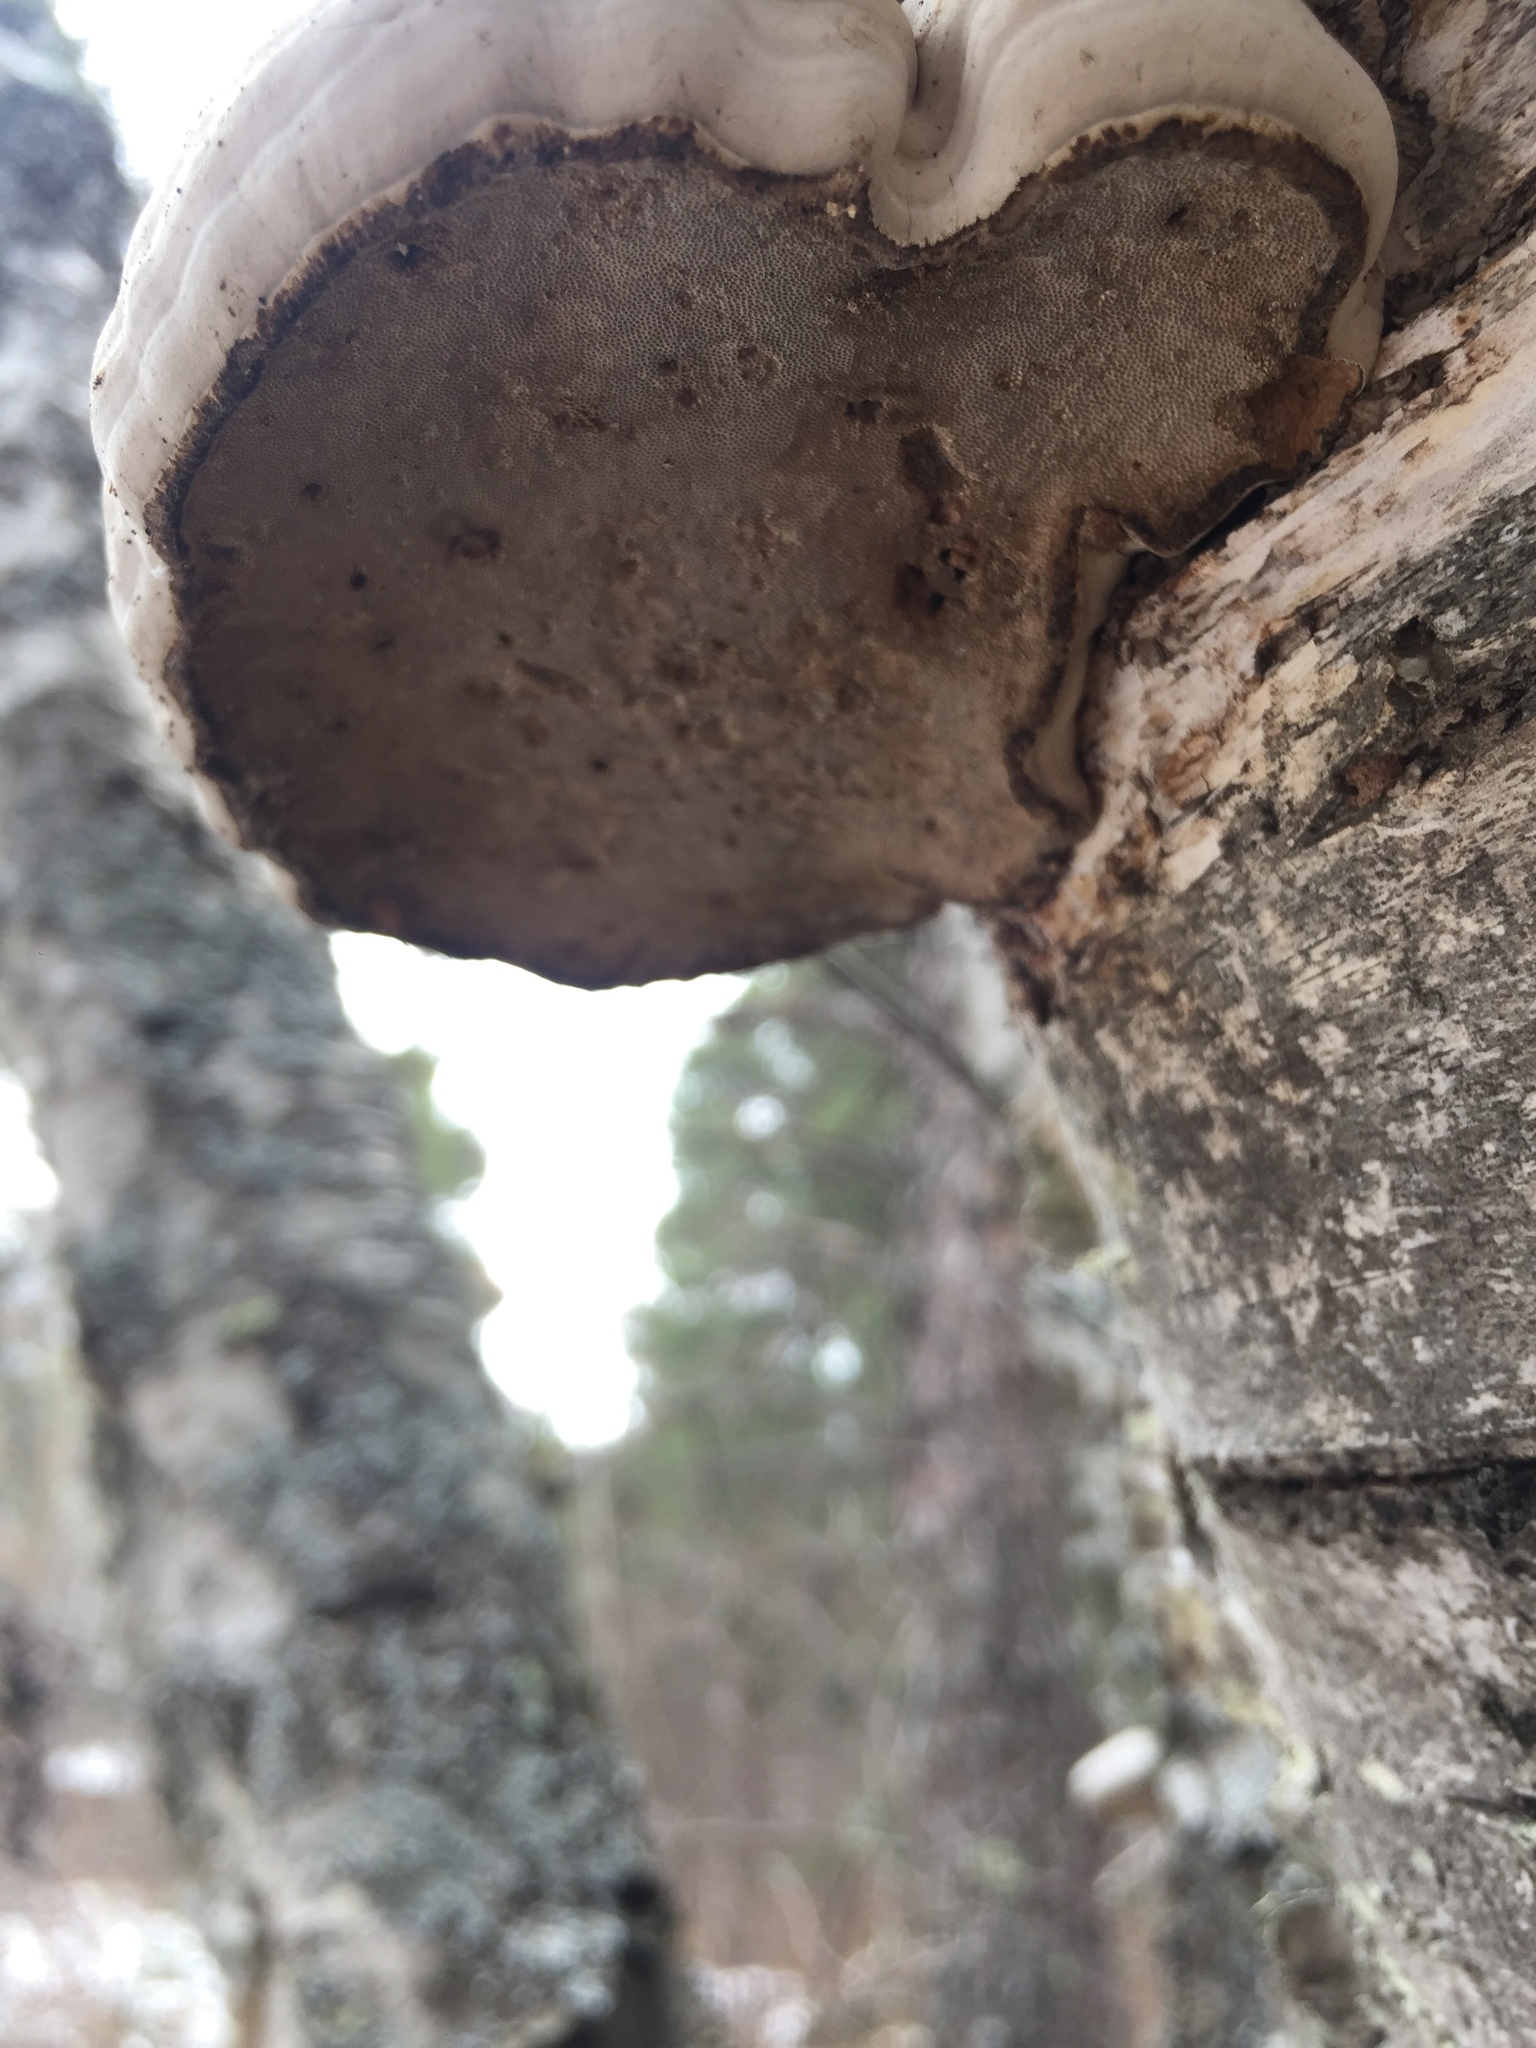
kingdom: Fungi
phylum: Basidiomycota
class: Agaricomycetes
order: Polyporales
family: Fomitopsidaceae
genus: Fomitopsis
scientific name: Fomitopsis betulina
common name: Birch polypore
